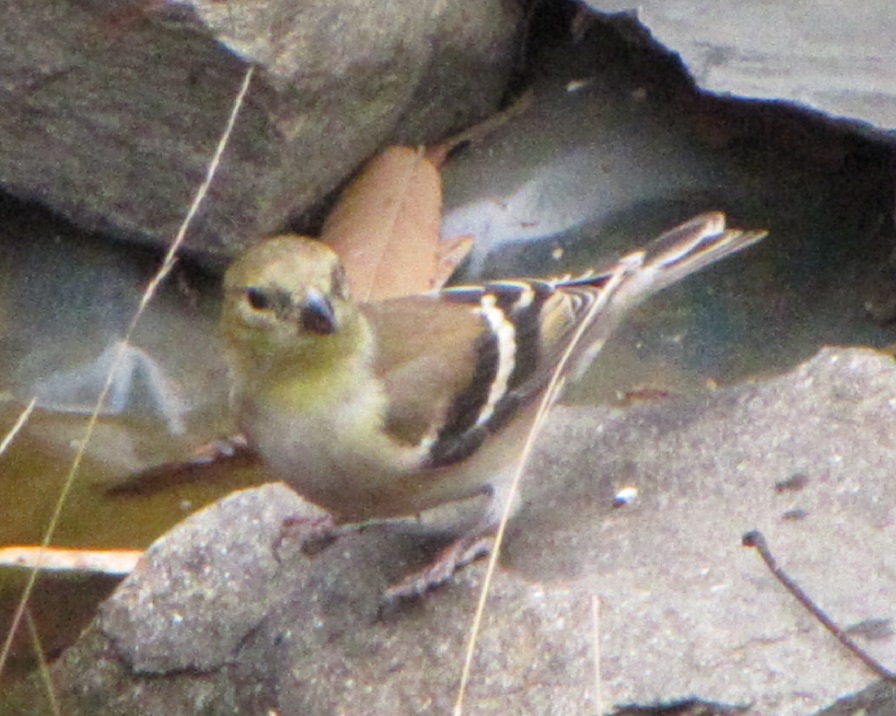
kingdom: Animalia
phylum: Chordata
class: Aves
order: Passeriformes
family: Fringillidae
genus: Spinus
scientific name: Spinus tristis
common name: American goldfinch
